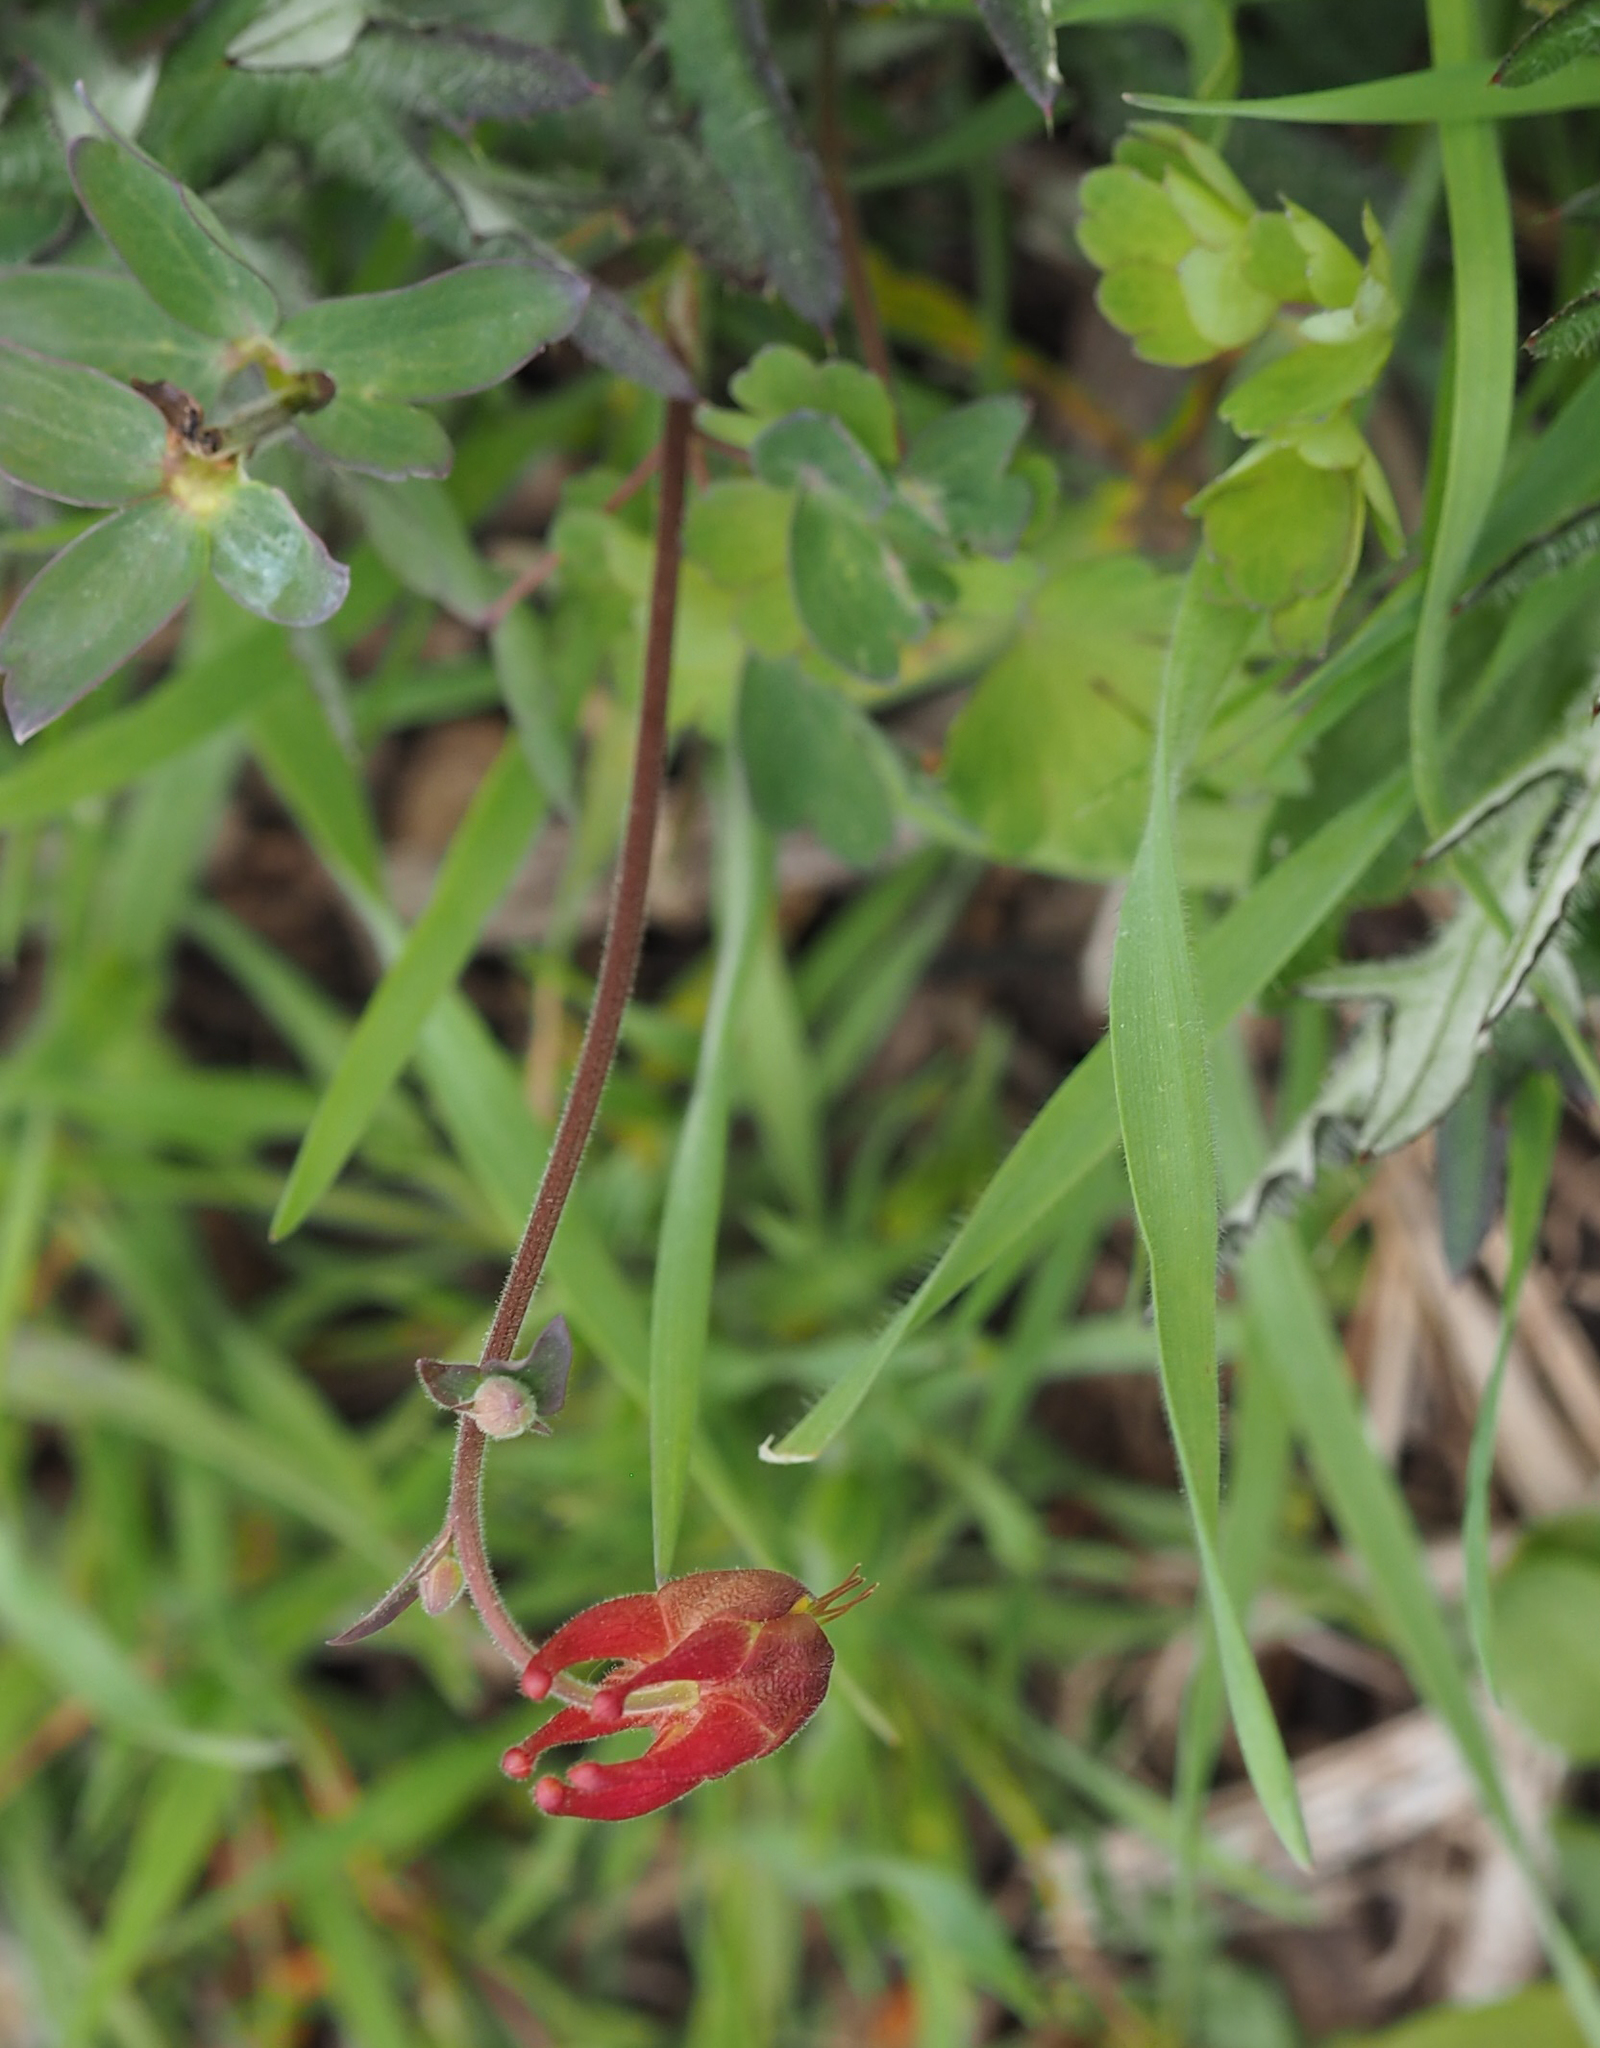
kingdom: Plantae
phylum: Tracheophyta
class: Magnoliopsida
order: Ranunculales
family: Ranunculaceae
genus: Aquilegia
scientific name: Aquilegia canadensis
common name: American columbine
